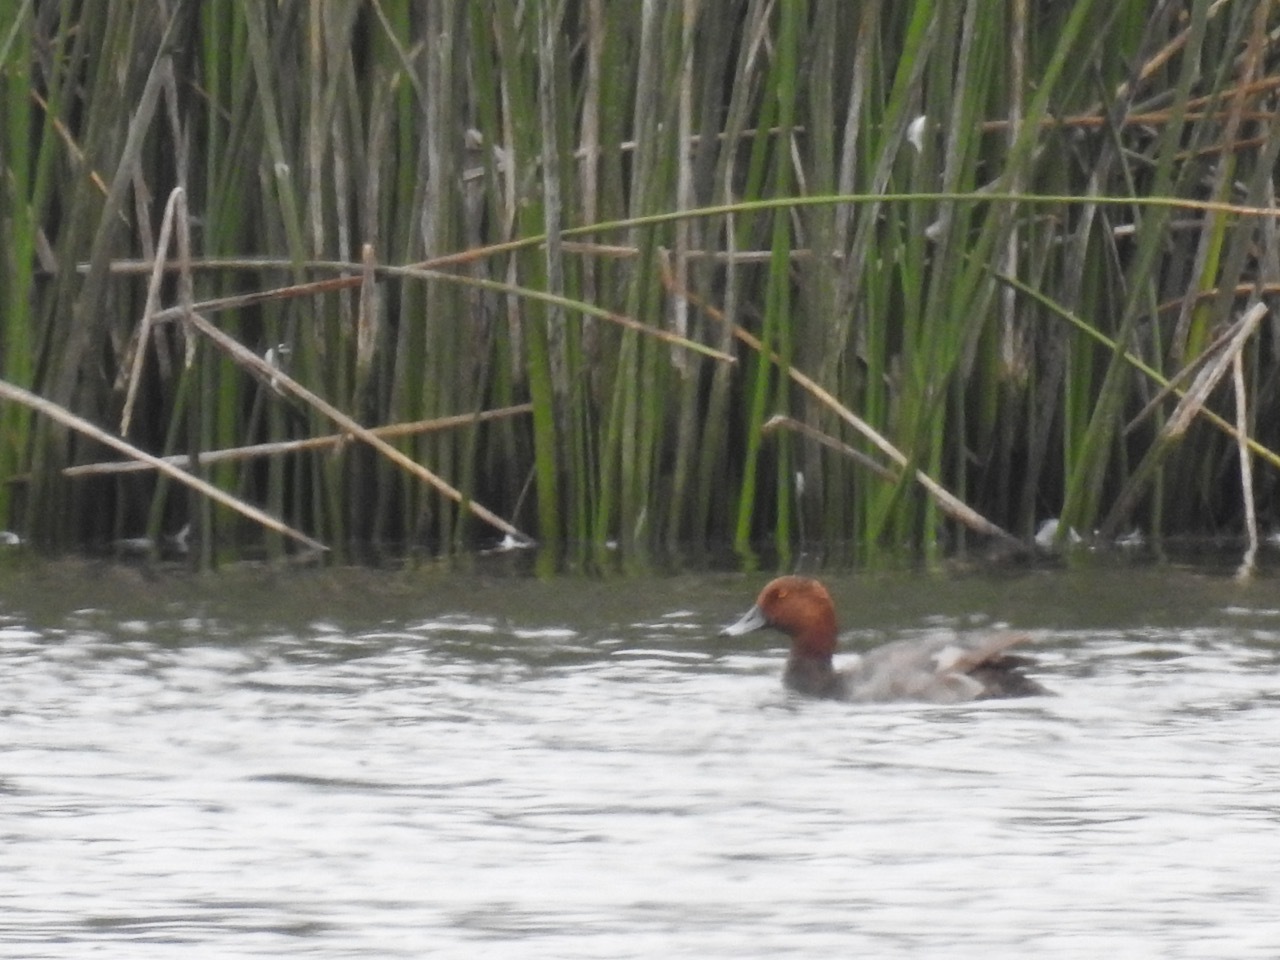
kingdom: Animalia
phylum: Chordata
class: Aves
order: Anseriformes
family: Anatidae
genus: Aythya
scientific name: Aythya americana
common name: Redhead
